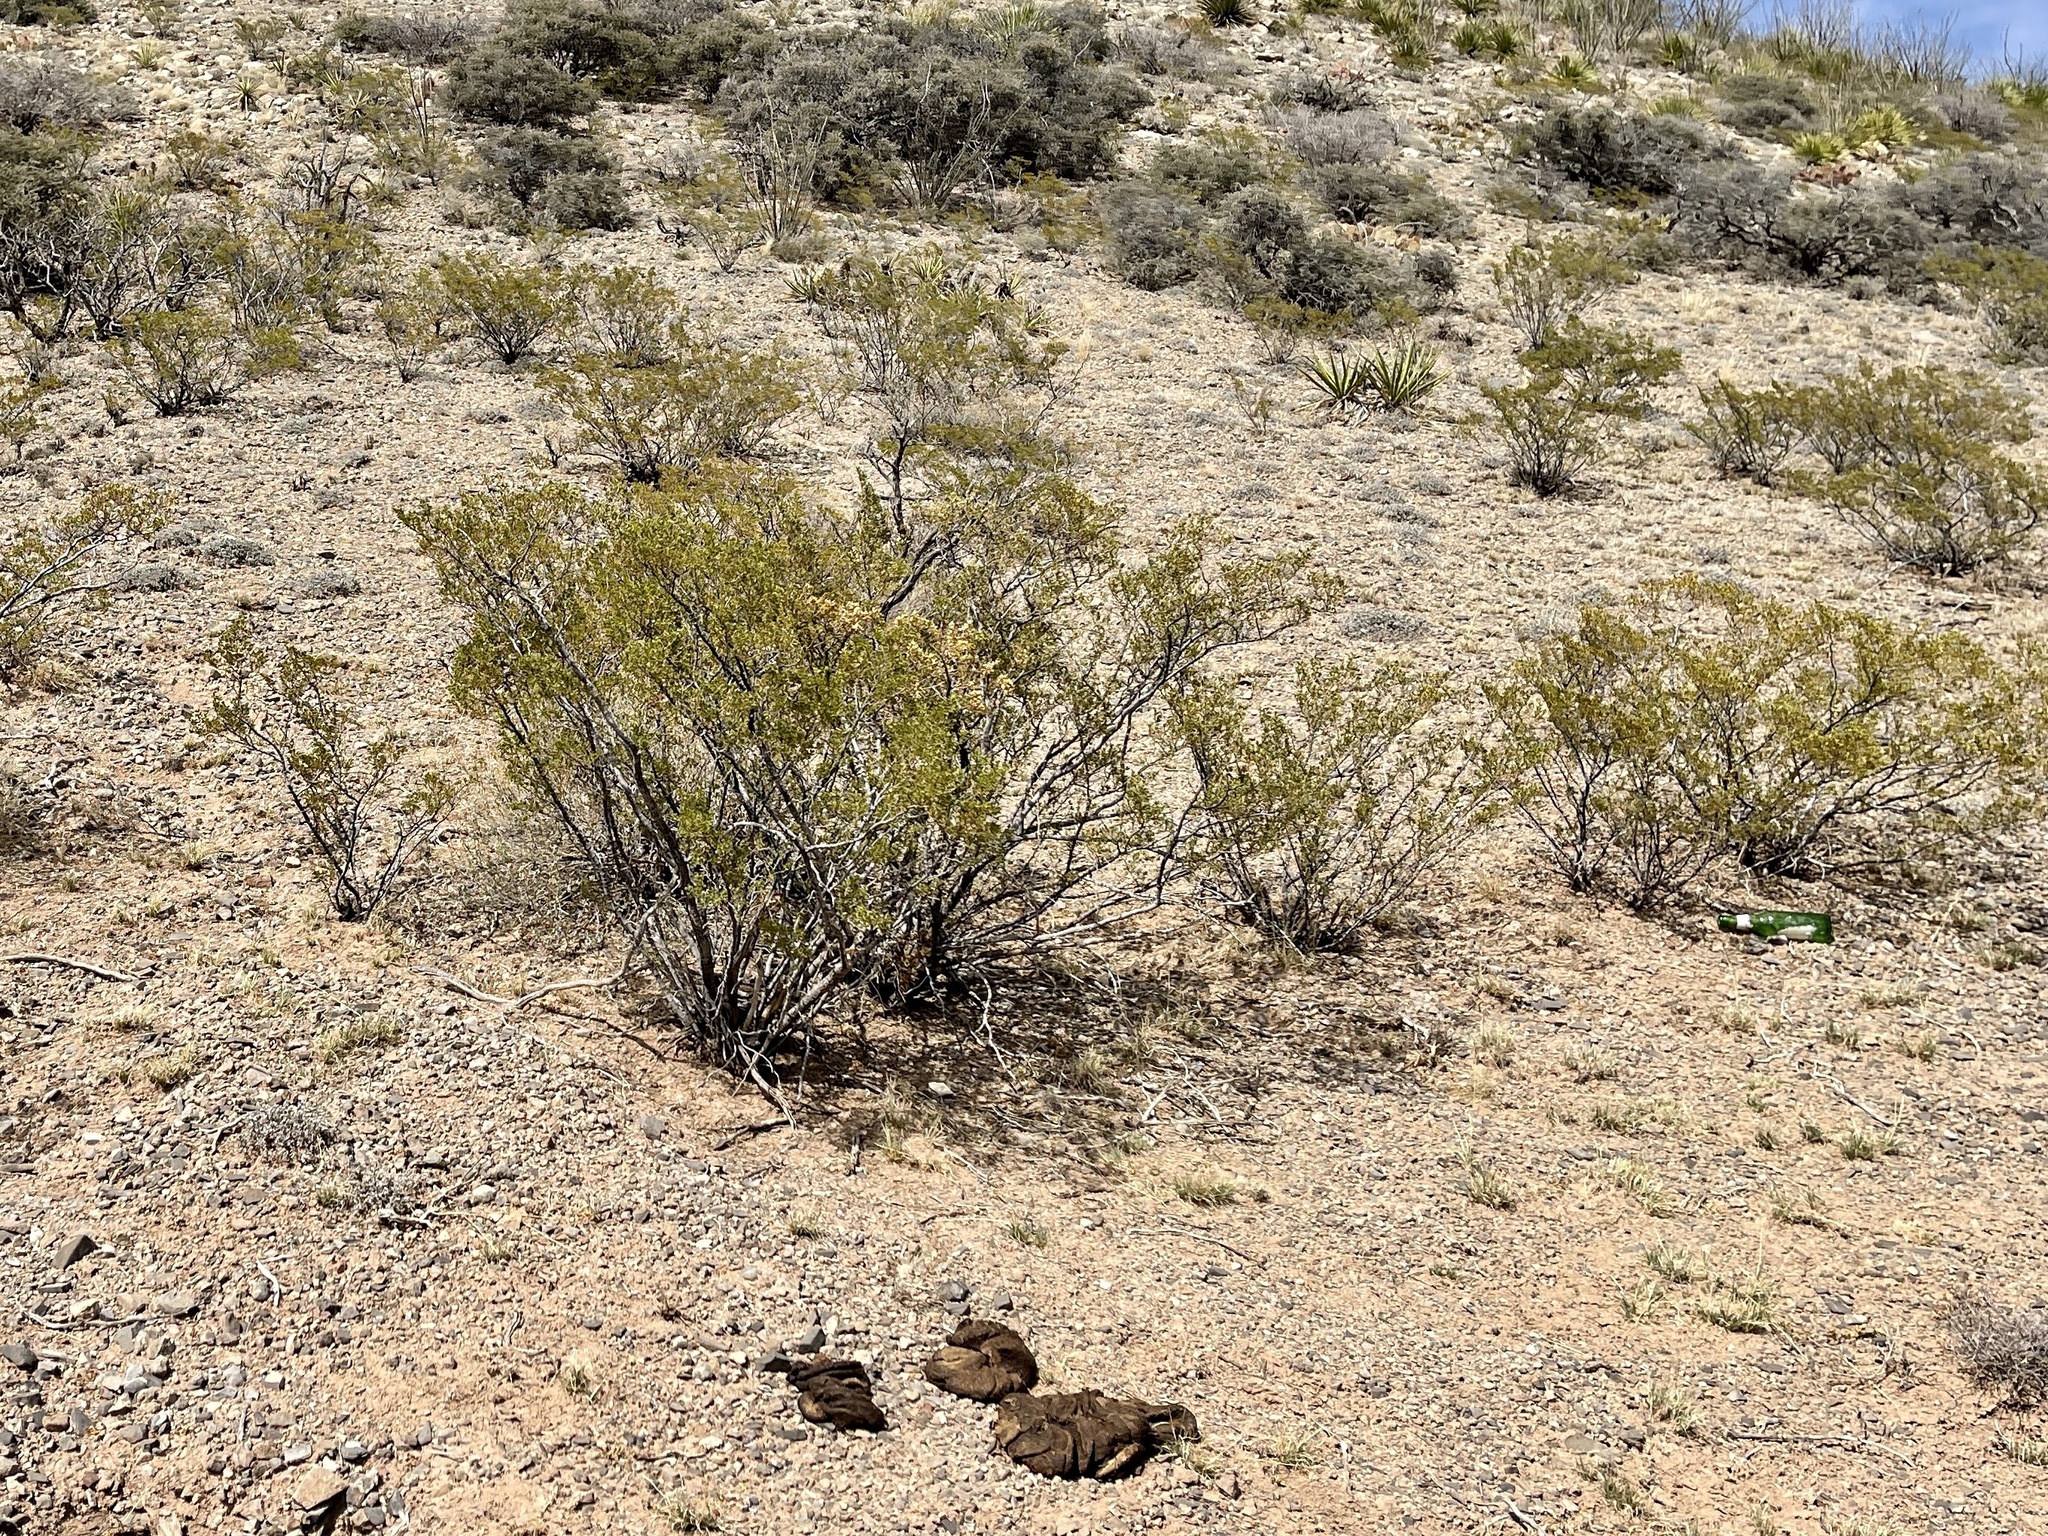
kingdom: Plantae
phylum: Tracheophyta
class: Magnoliopsida
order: Zygophyllales
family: Zygophyllaceae
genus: Larrea
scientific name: Larrea tridentata
